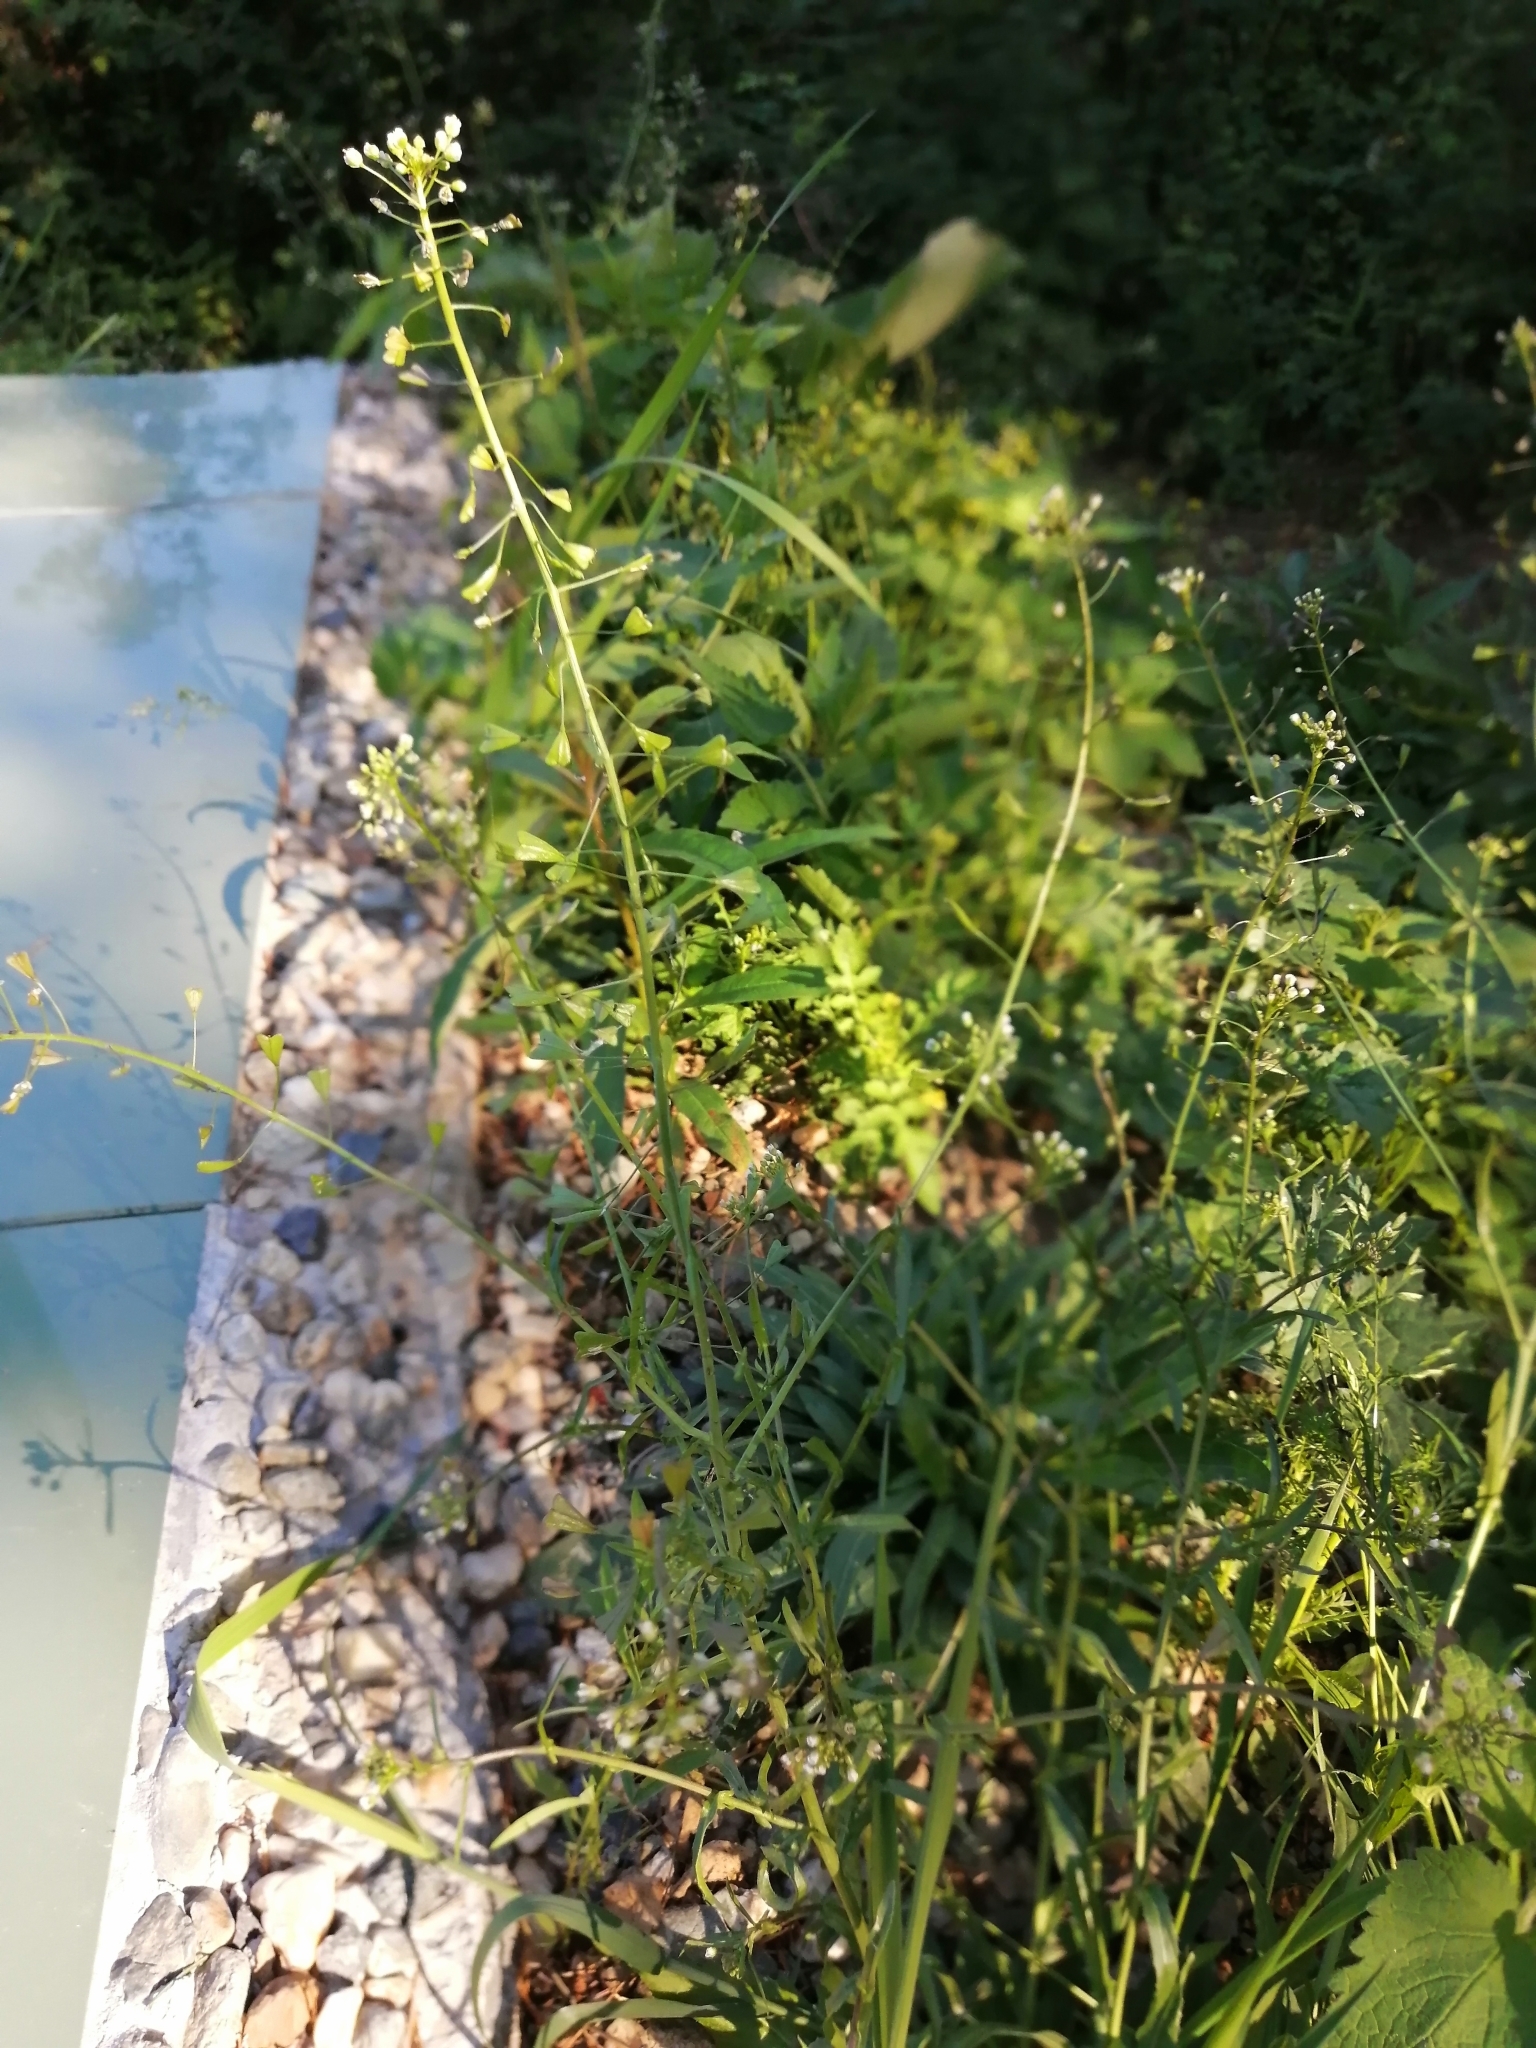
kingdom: Plantae
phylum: Tracheophyta
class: Magnoliopsida
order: Brassicales
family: Brassicaceae
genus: Capsella
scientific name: Capsella bursa-pastoris
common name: Shepherd's purse
